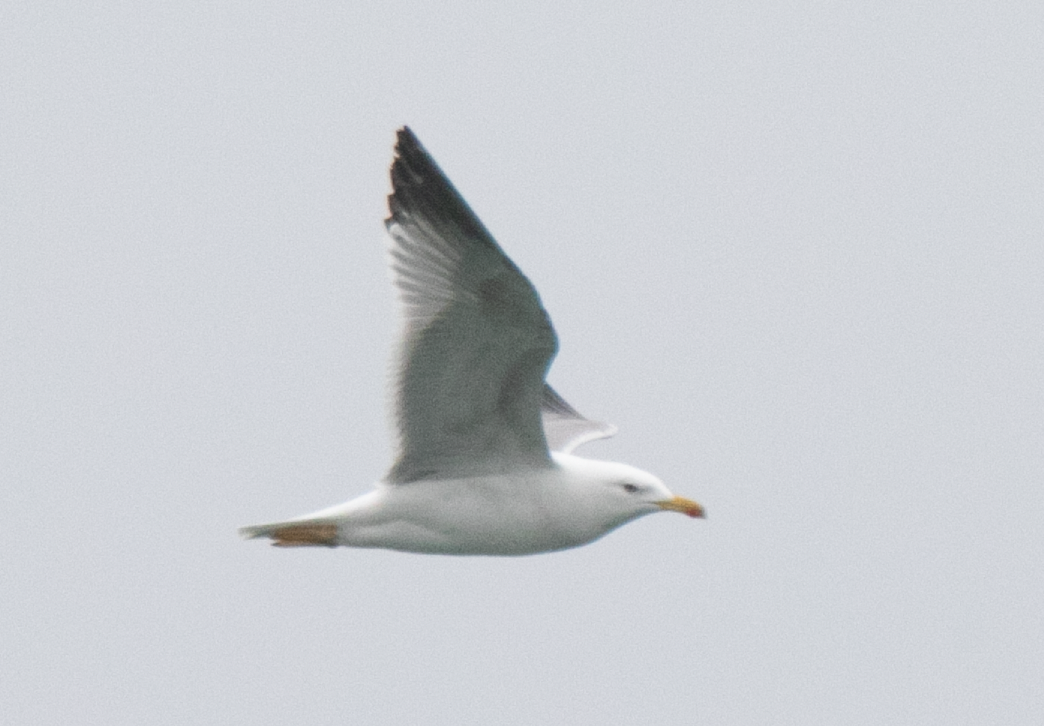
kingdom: Animalia
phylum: Chordata
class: Aves
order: Charadriiformes
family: Laridae
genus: Larus
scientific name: Larus michahellis
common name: Yellow-legged gull
